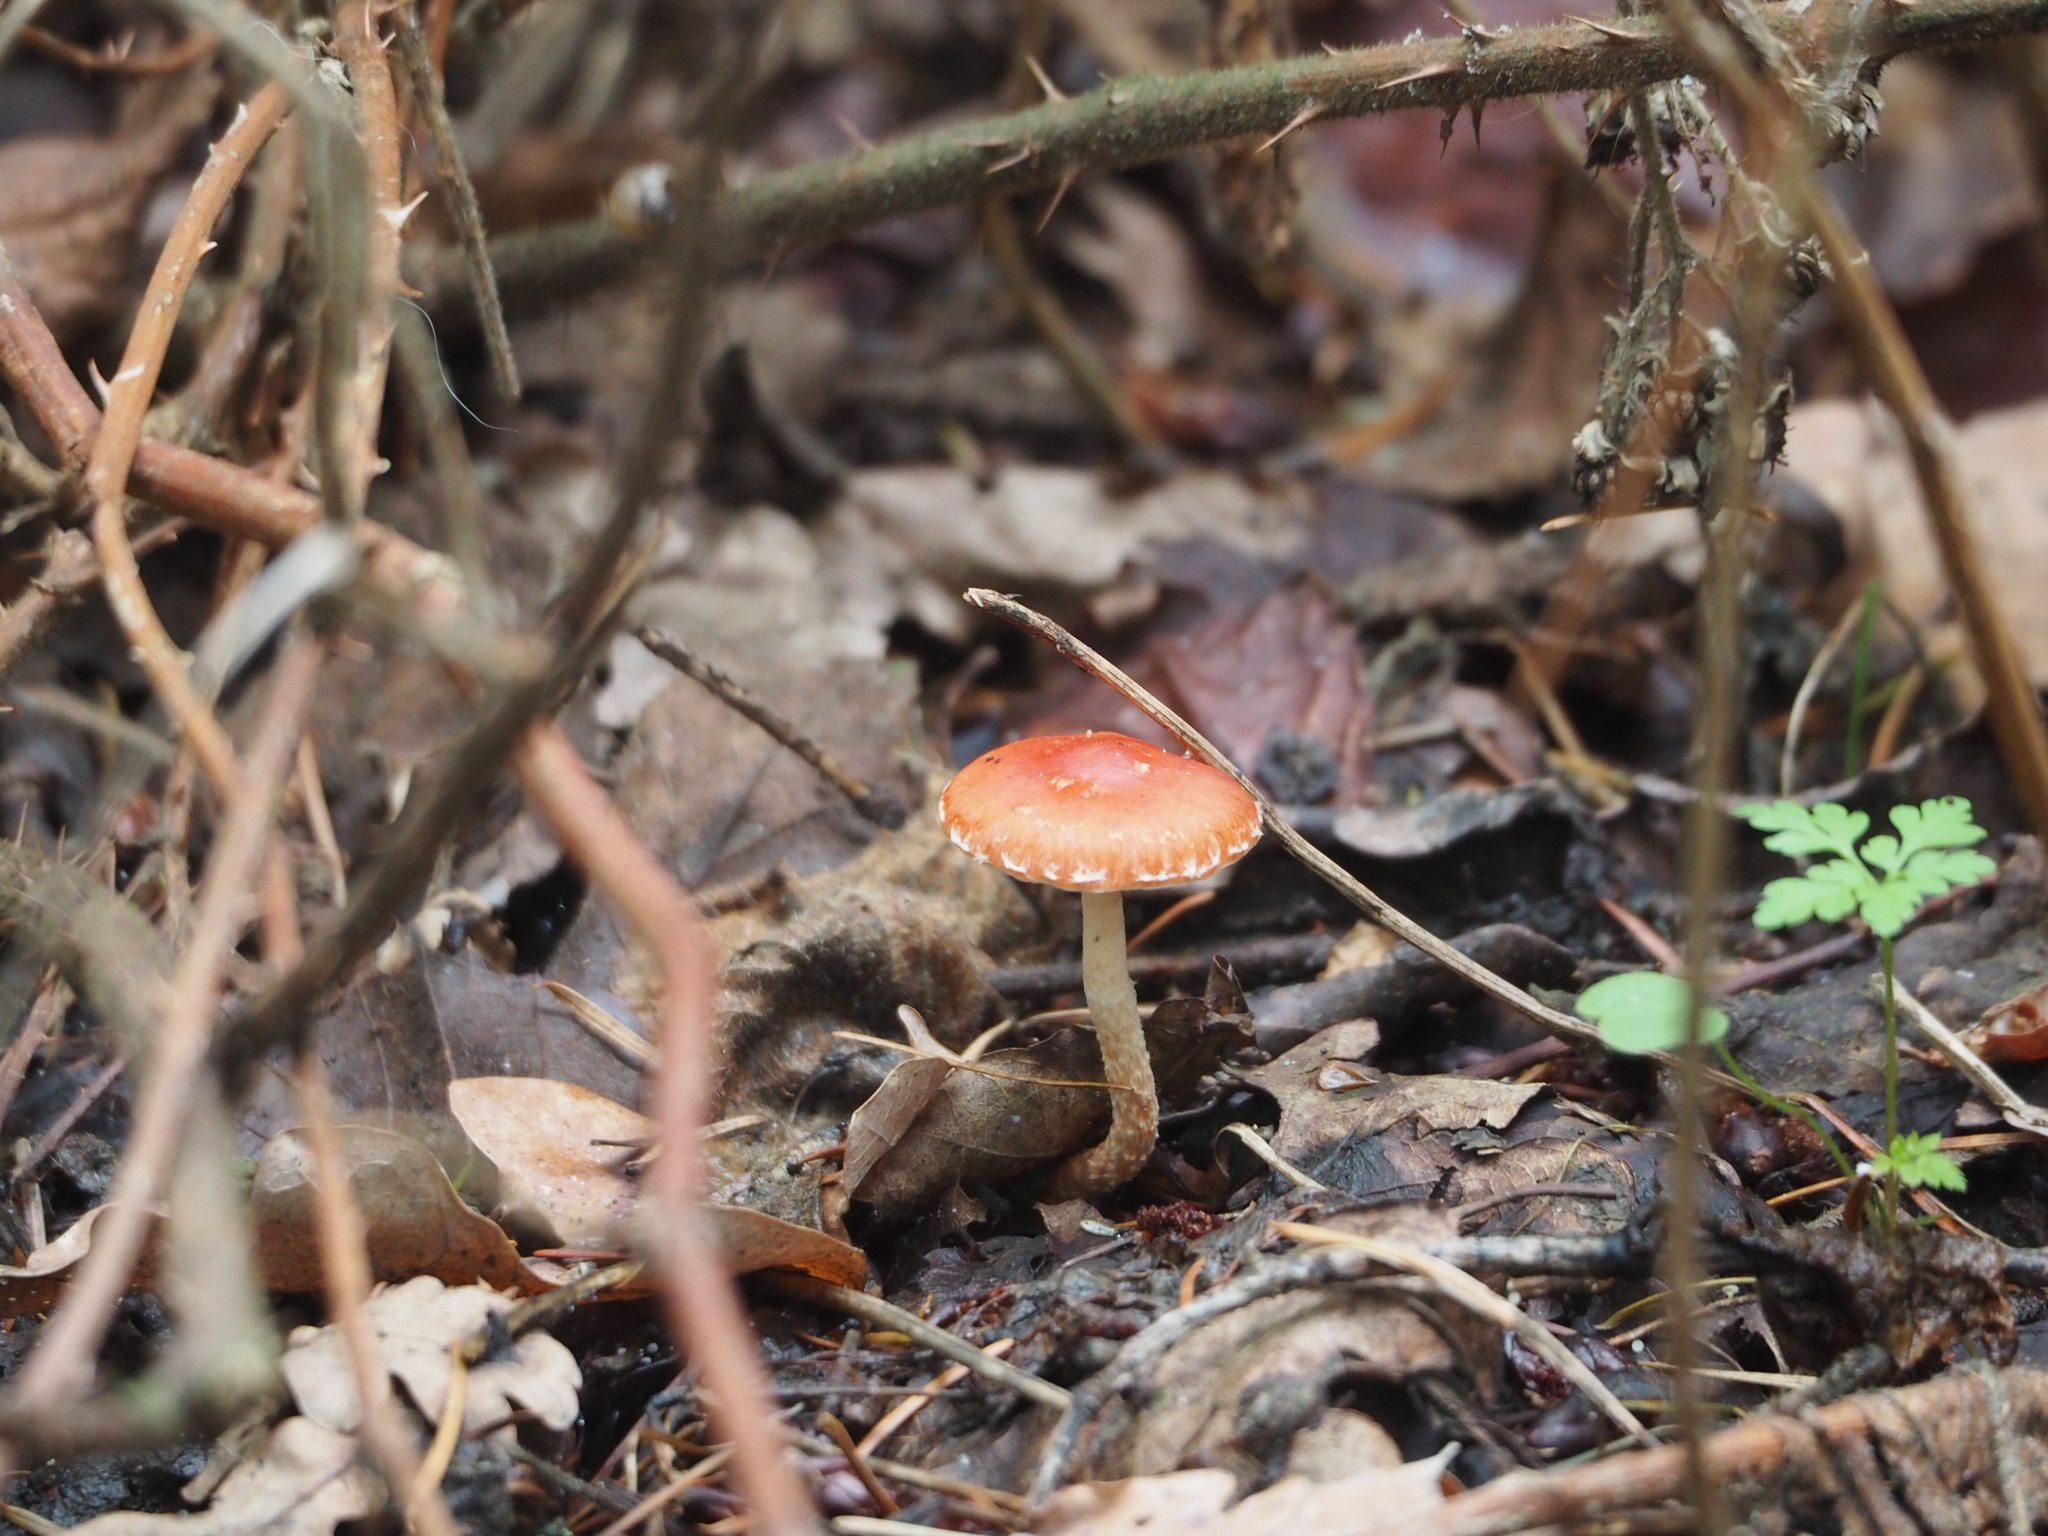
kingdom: Fungi
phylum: Basidiomycota
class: Agaricomycetes
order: Agaricales
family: Strophariaceae
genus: Leratiomyces
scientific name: Leratiomyces ceres
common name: Redlead roundhead
